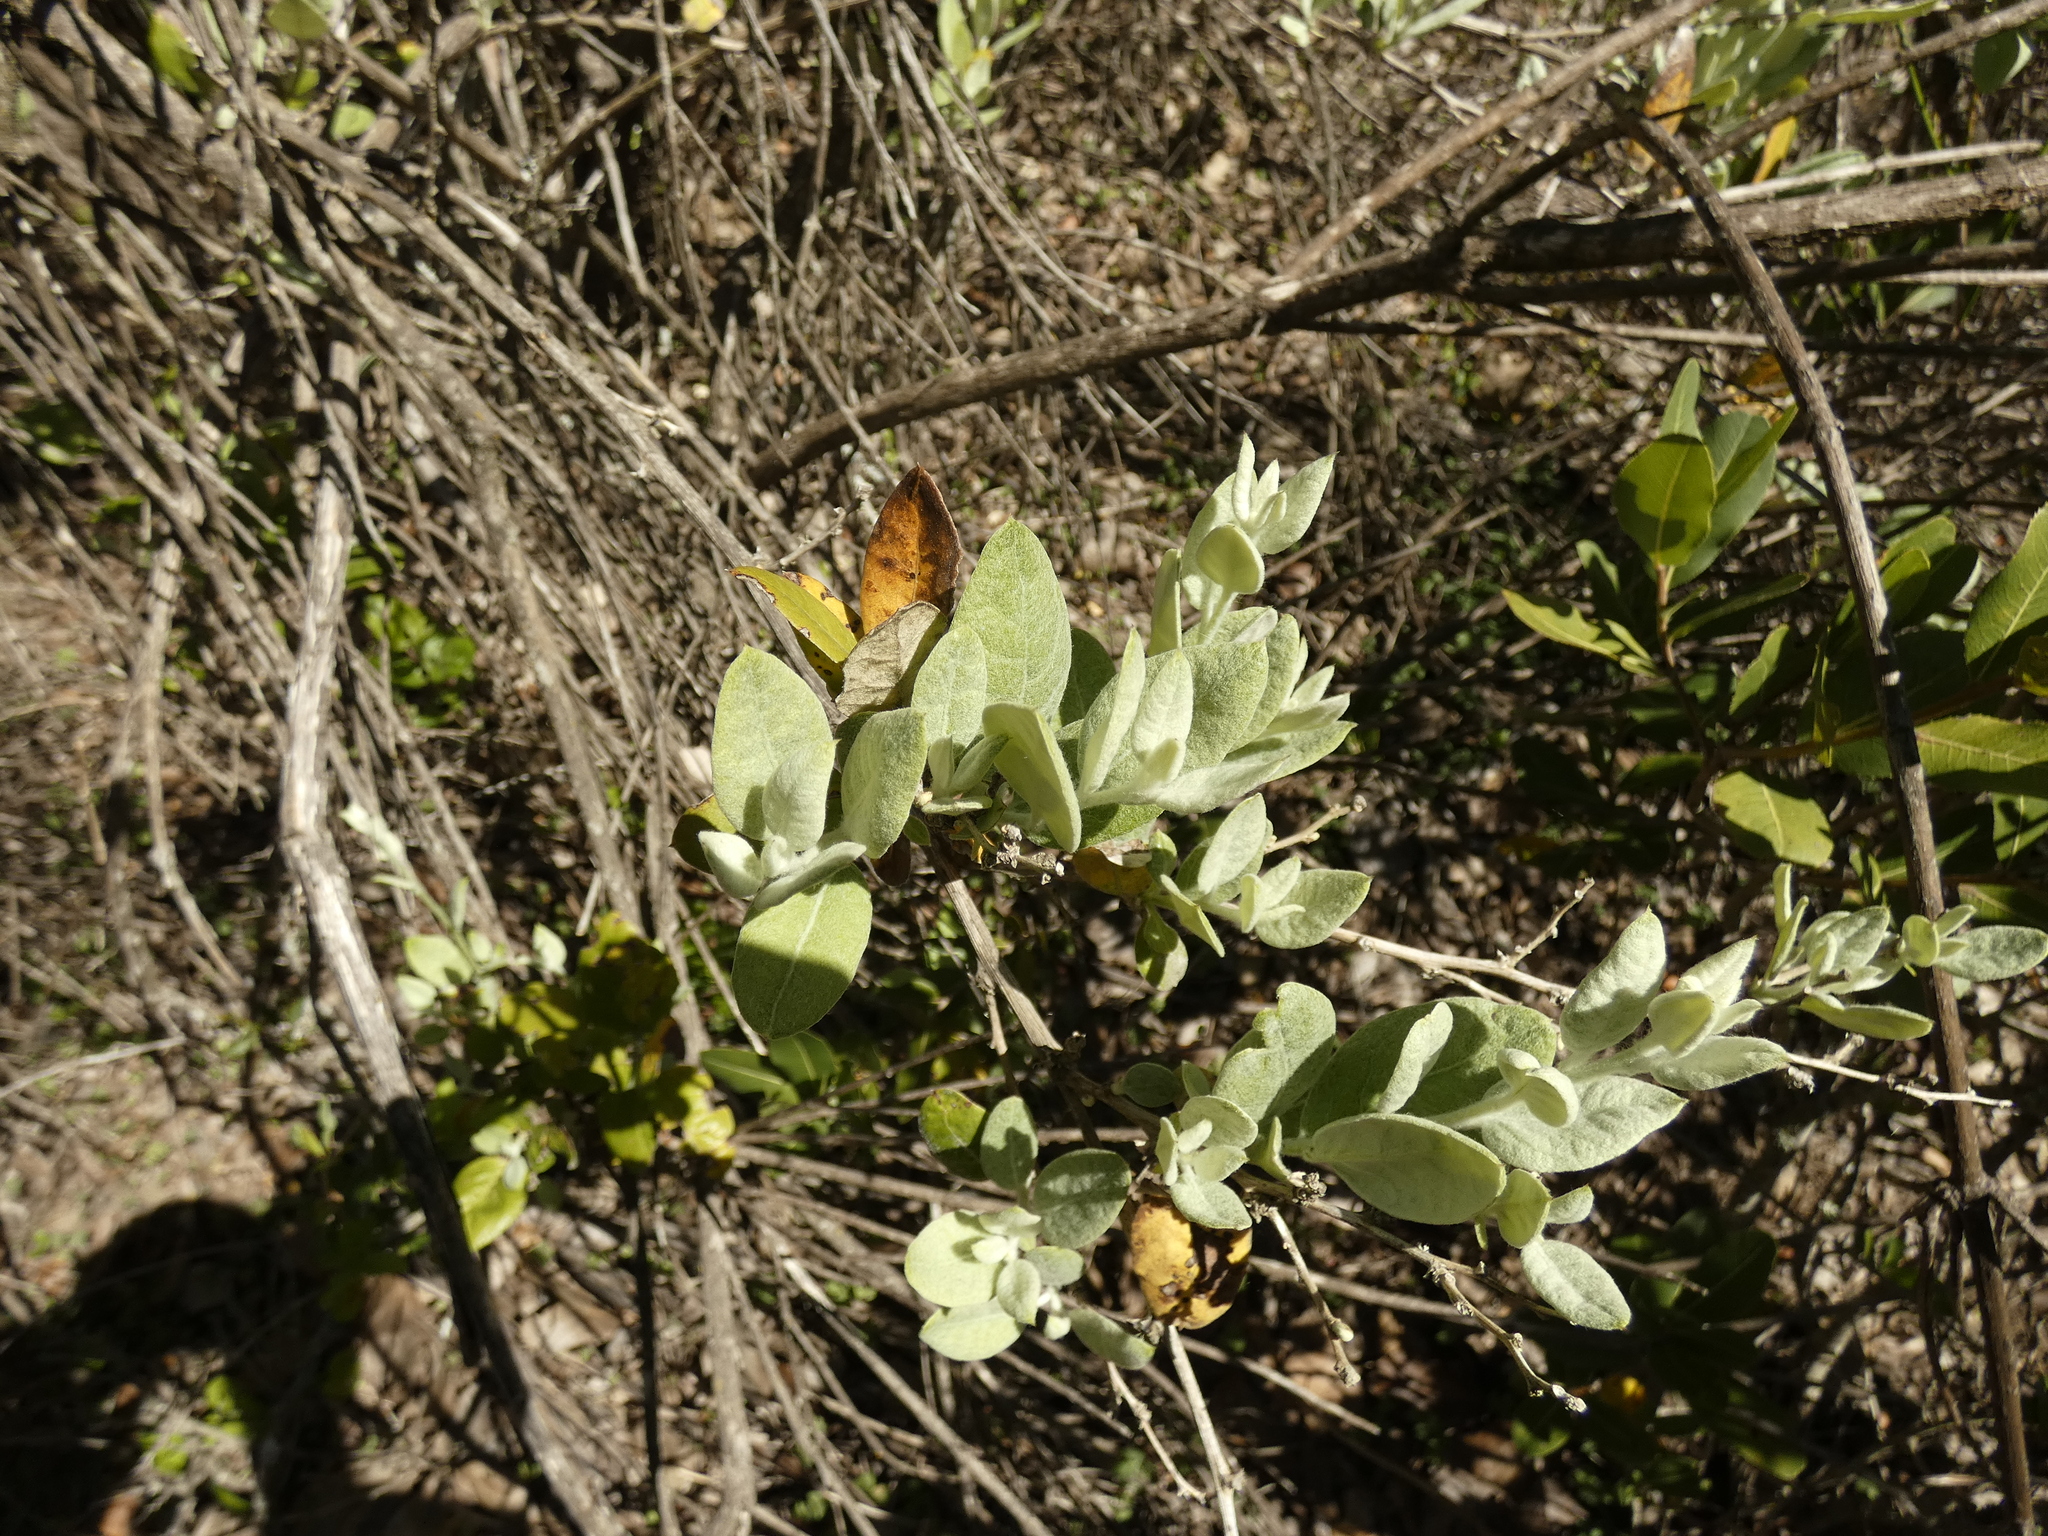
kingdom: Plantae
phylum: Tracheophyta
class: Magnoliopsida
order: Asterales
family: Asteraceae
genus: Proustia
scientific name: Proustia pyrifolia
